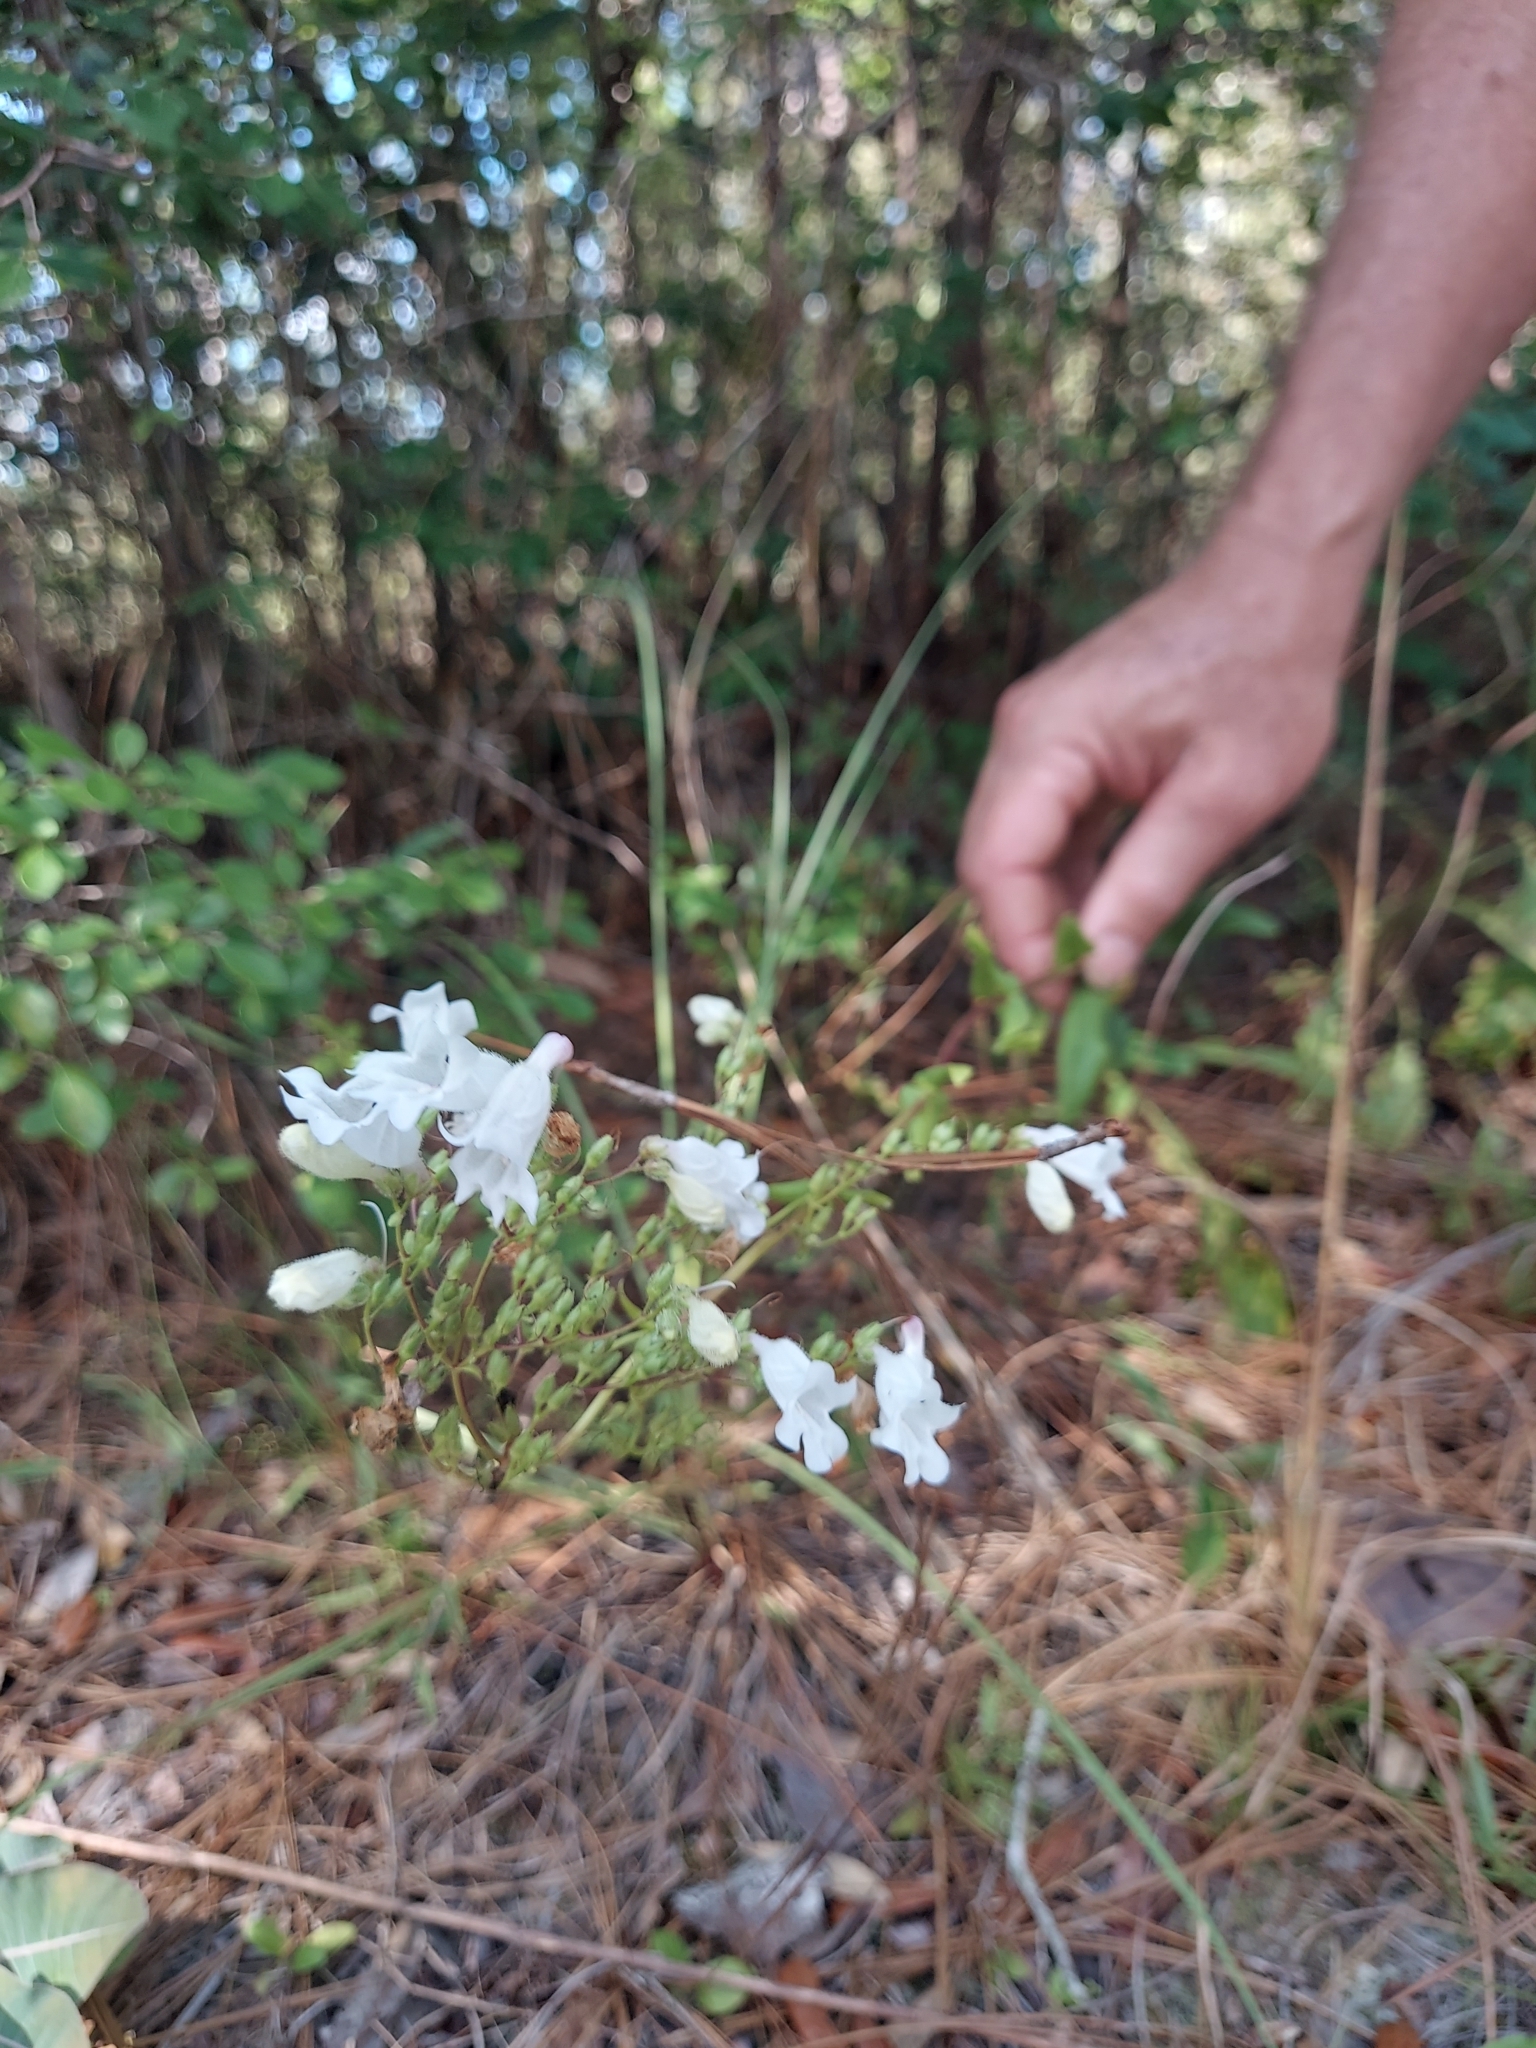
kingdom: Plantae
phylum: Tracheophyta
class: Magnoliopsida
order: Lamiales
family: Plantaginaceae
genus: Penstemon
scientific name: Penstemon multiflorus
